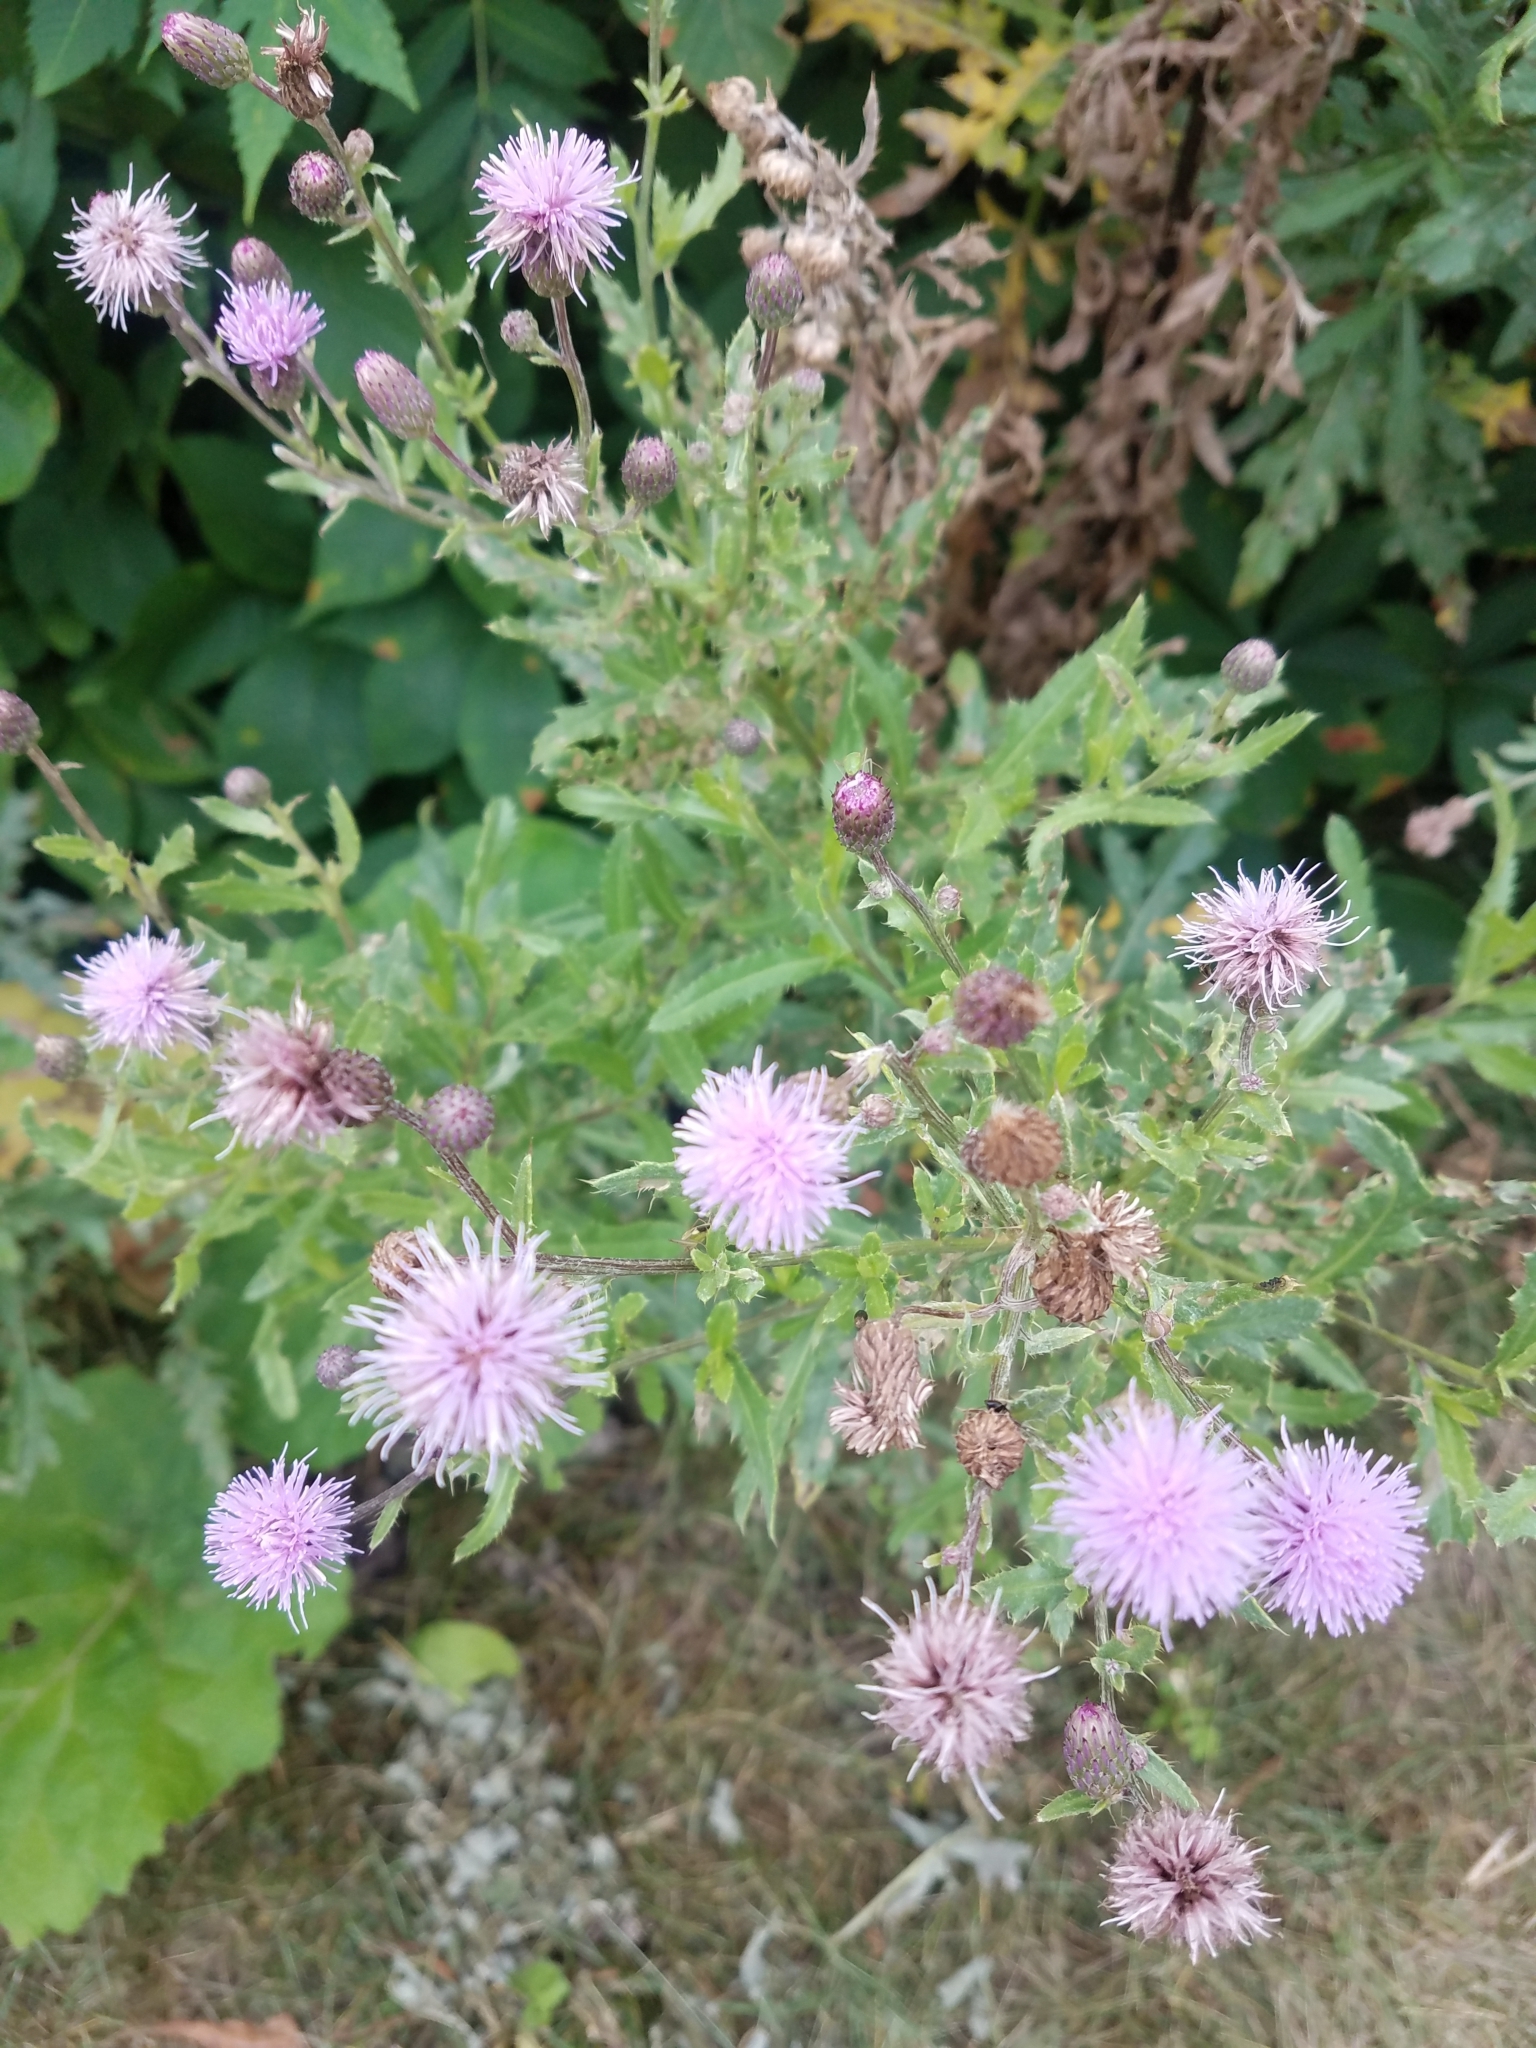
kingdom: Plantae
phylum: Tracheophyta
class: Magnoliopsida
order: Asterales
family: Asteraceae
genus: Cirsium
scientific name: Cirsium arvense
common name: Creeping thistle
